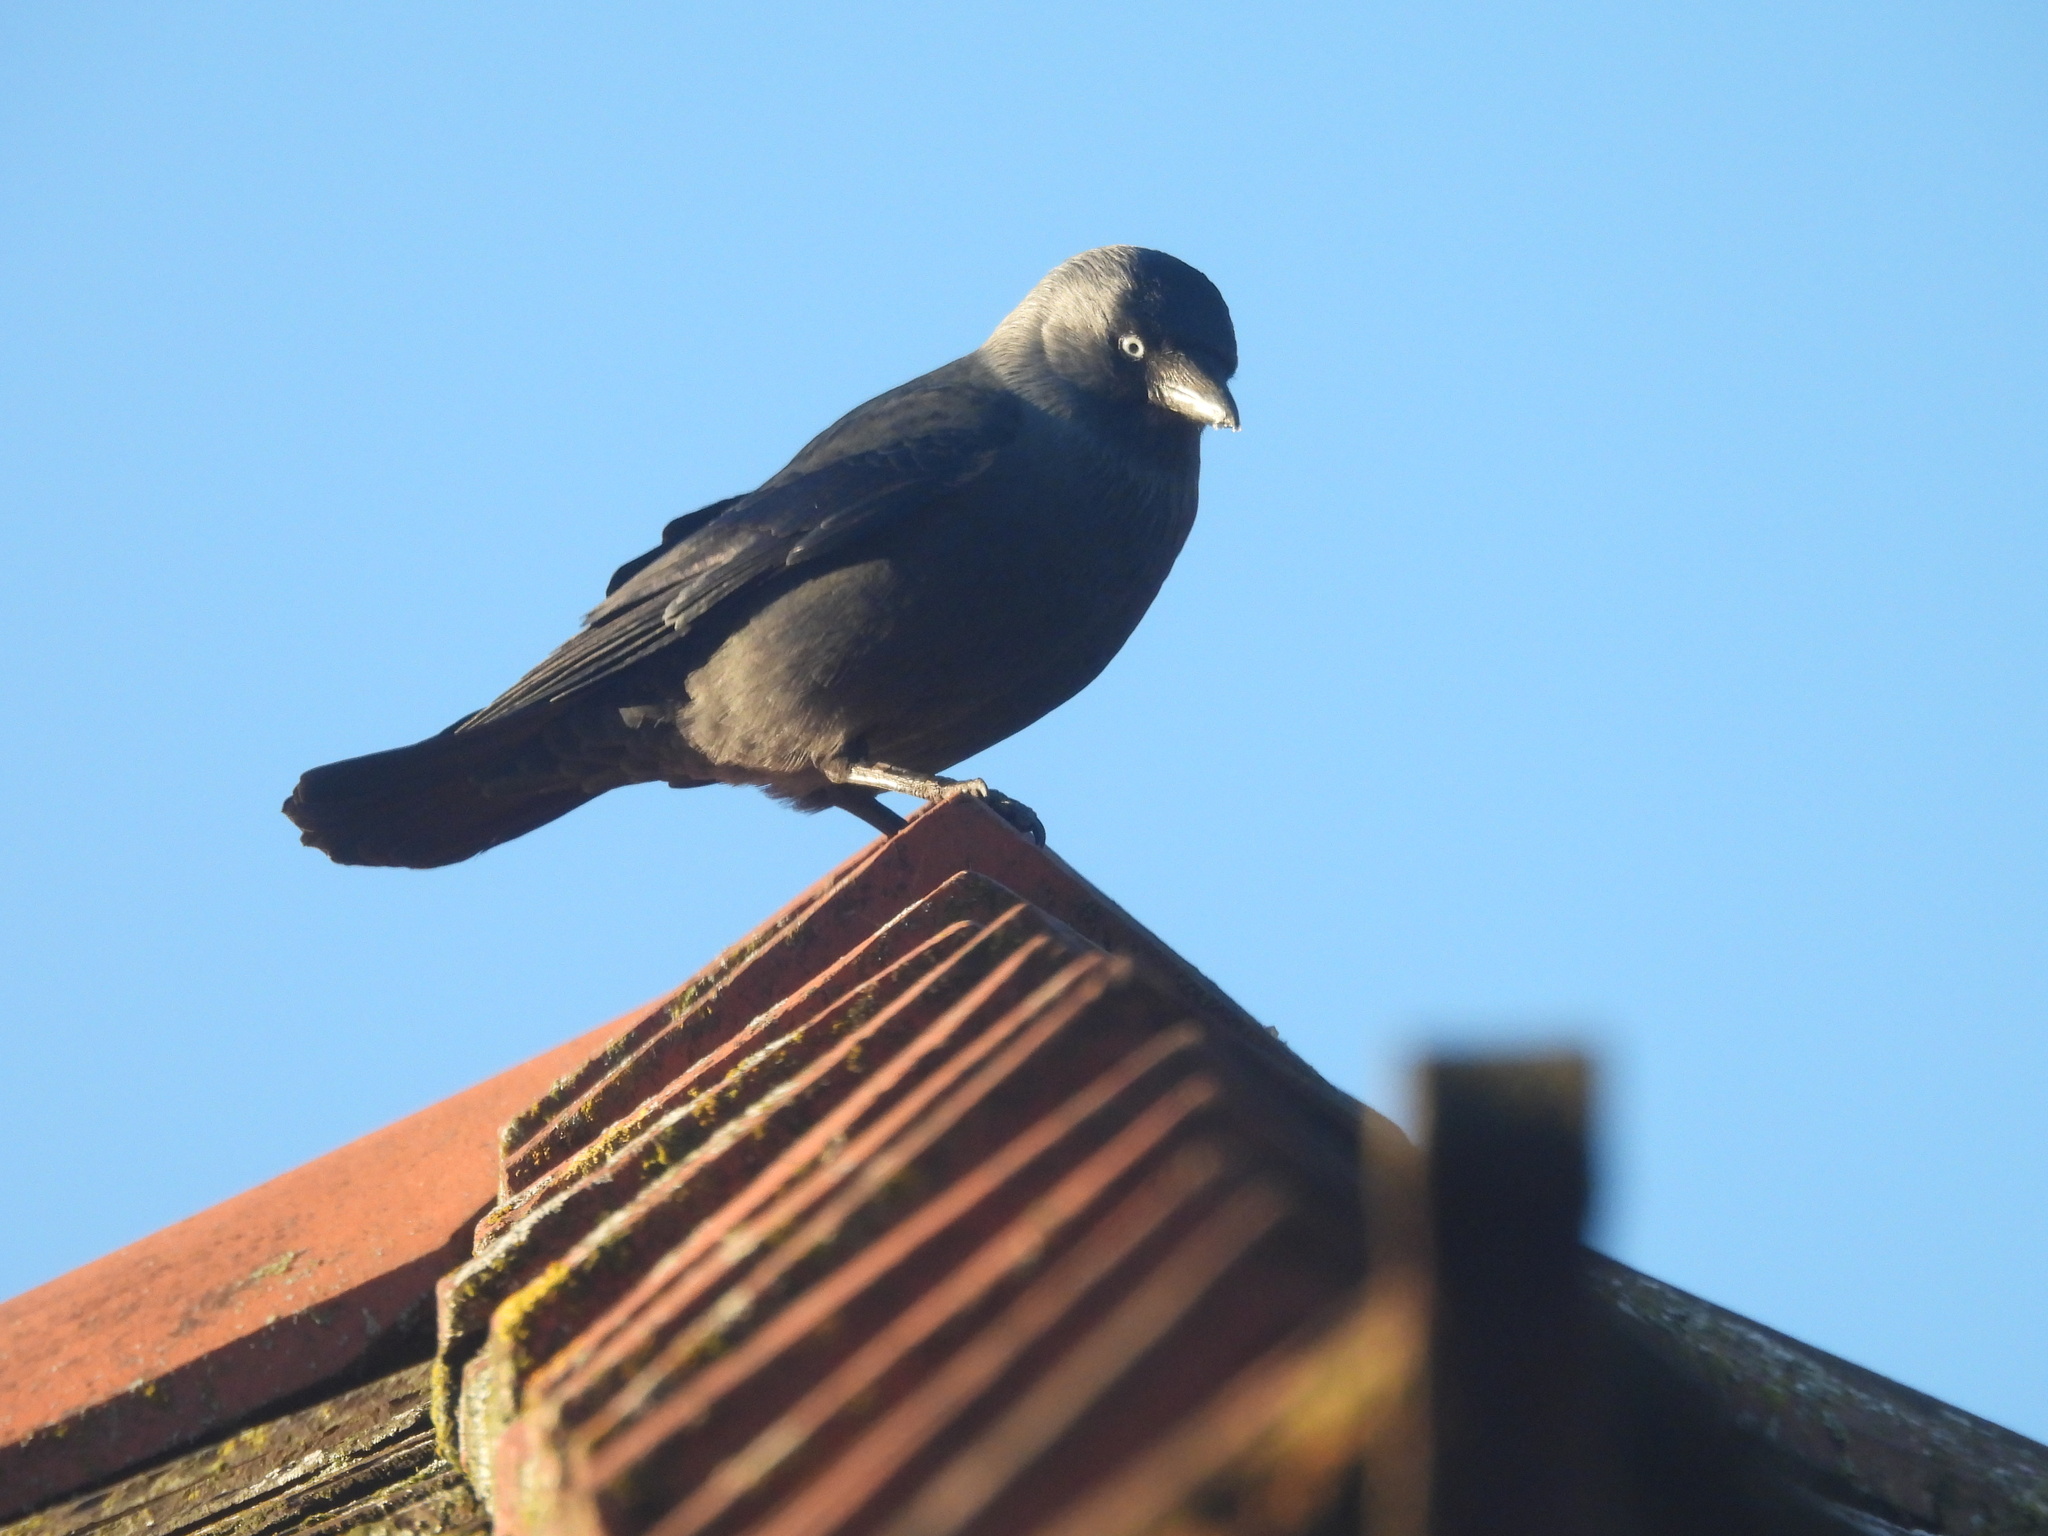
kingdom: Animalia
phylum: Chordata
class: Aves
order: Passeriformes
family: Corvidae
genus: Coloeus
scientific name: Coloeus monedula
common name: Western jackdaw
